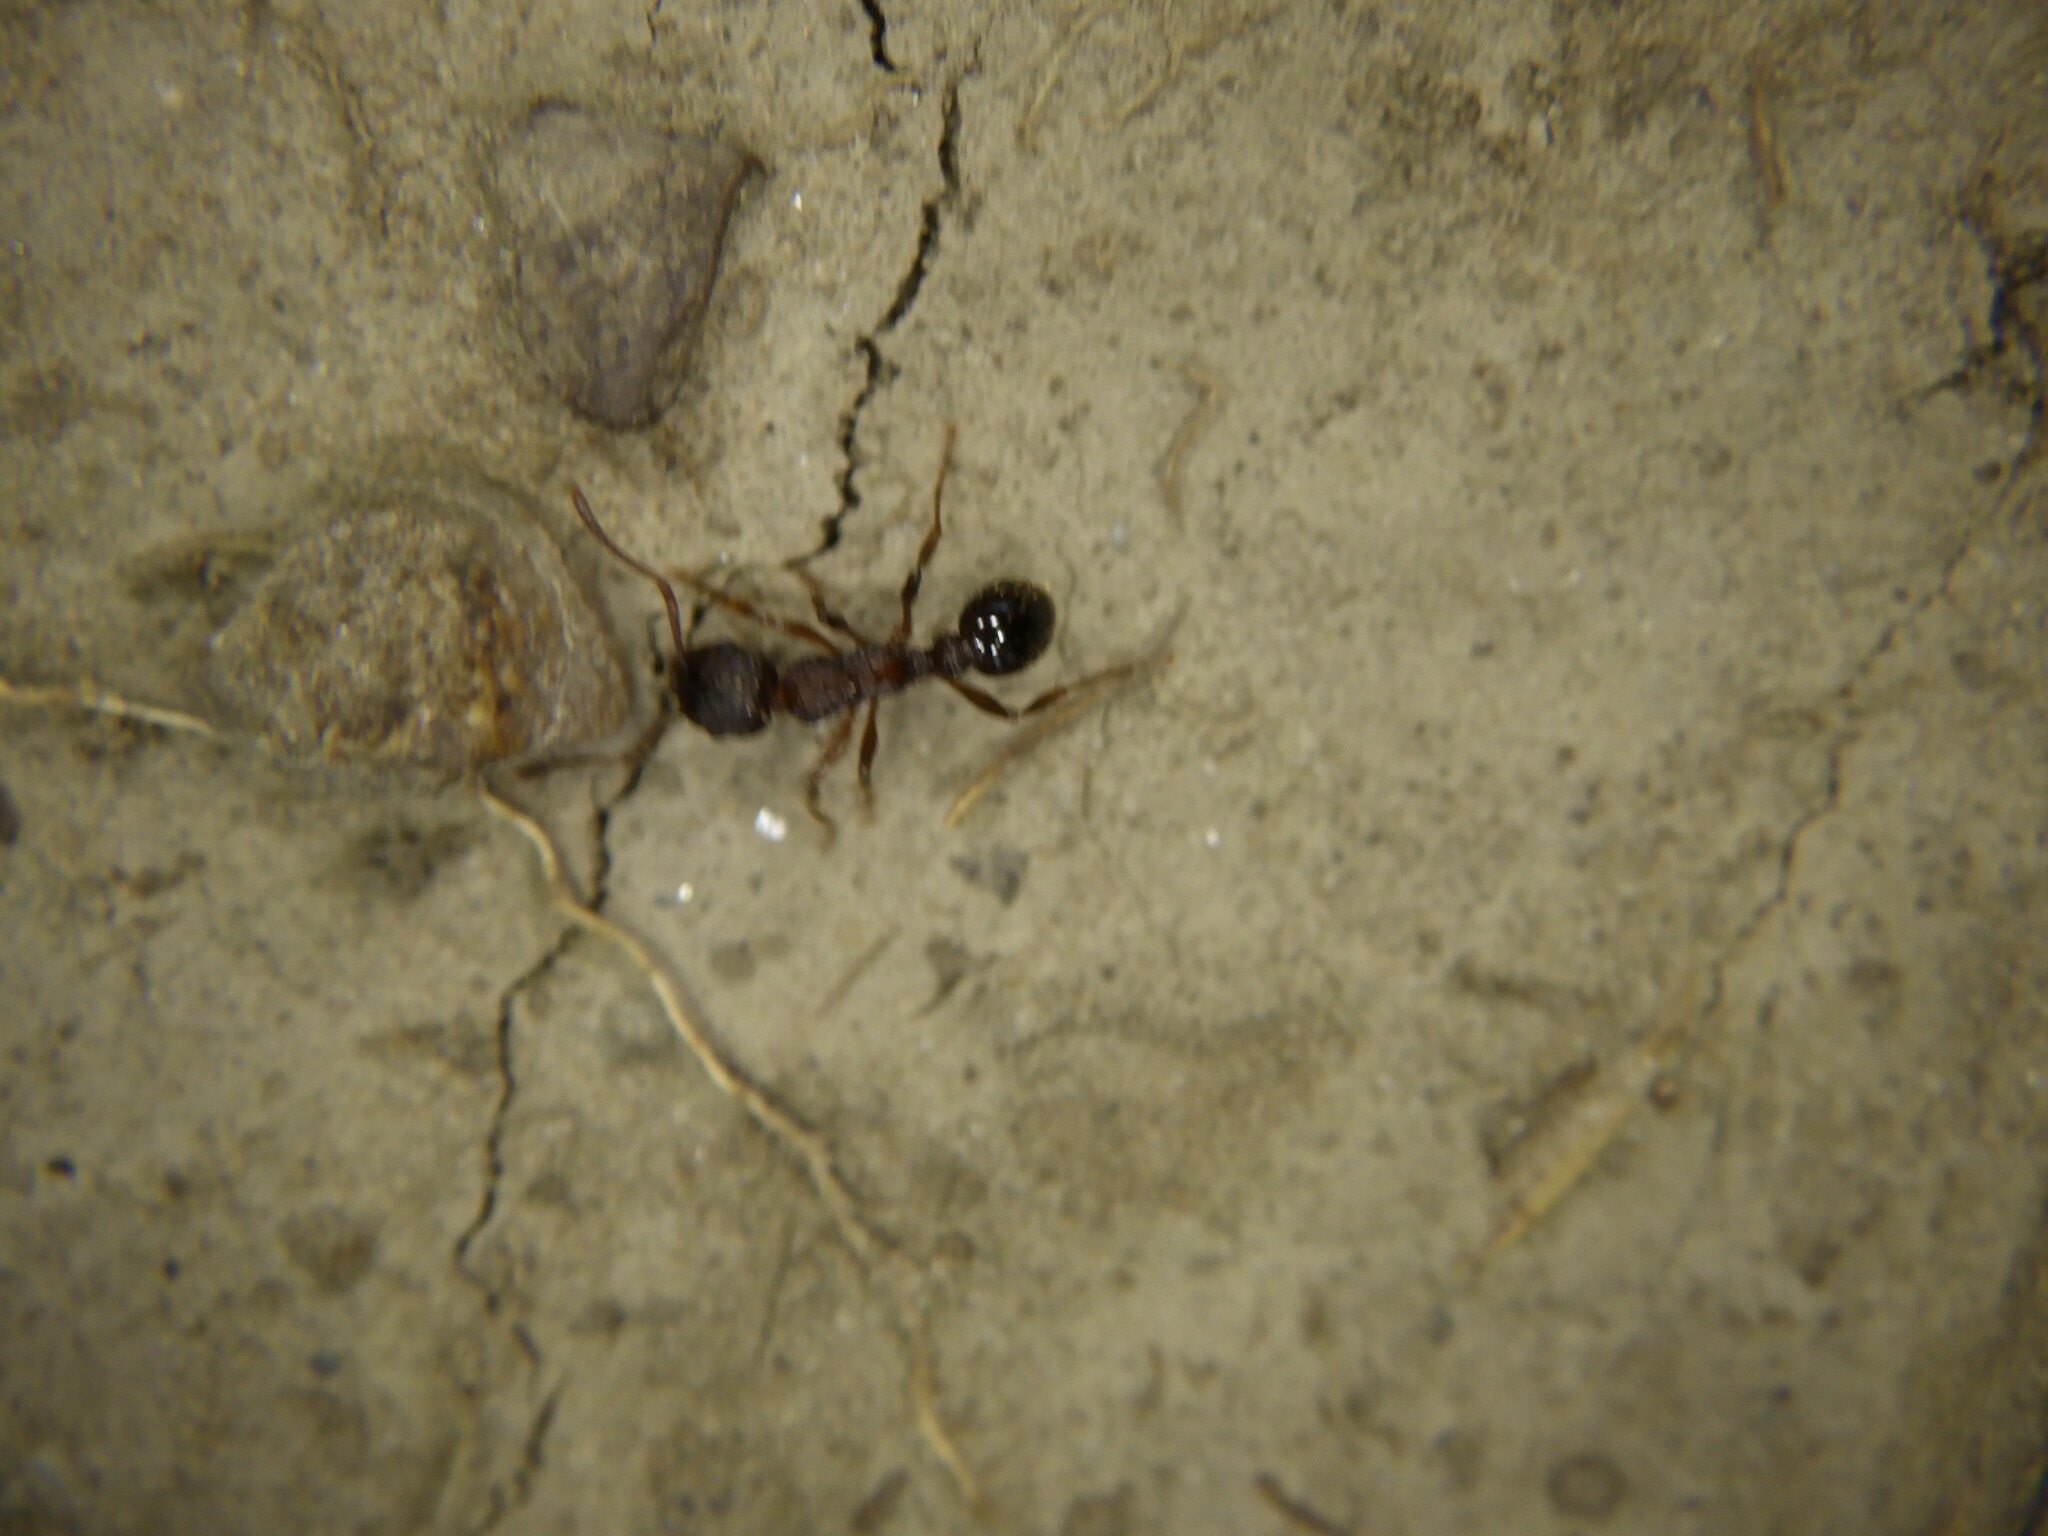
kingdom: Animalia
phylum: Arthropoda
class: Insecta
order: Hymenoptera
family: Formicidae
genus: Myrmica
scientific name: Myrmica
